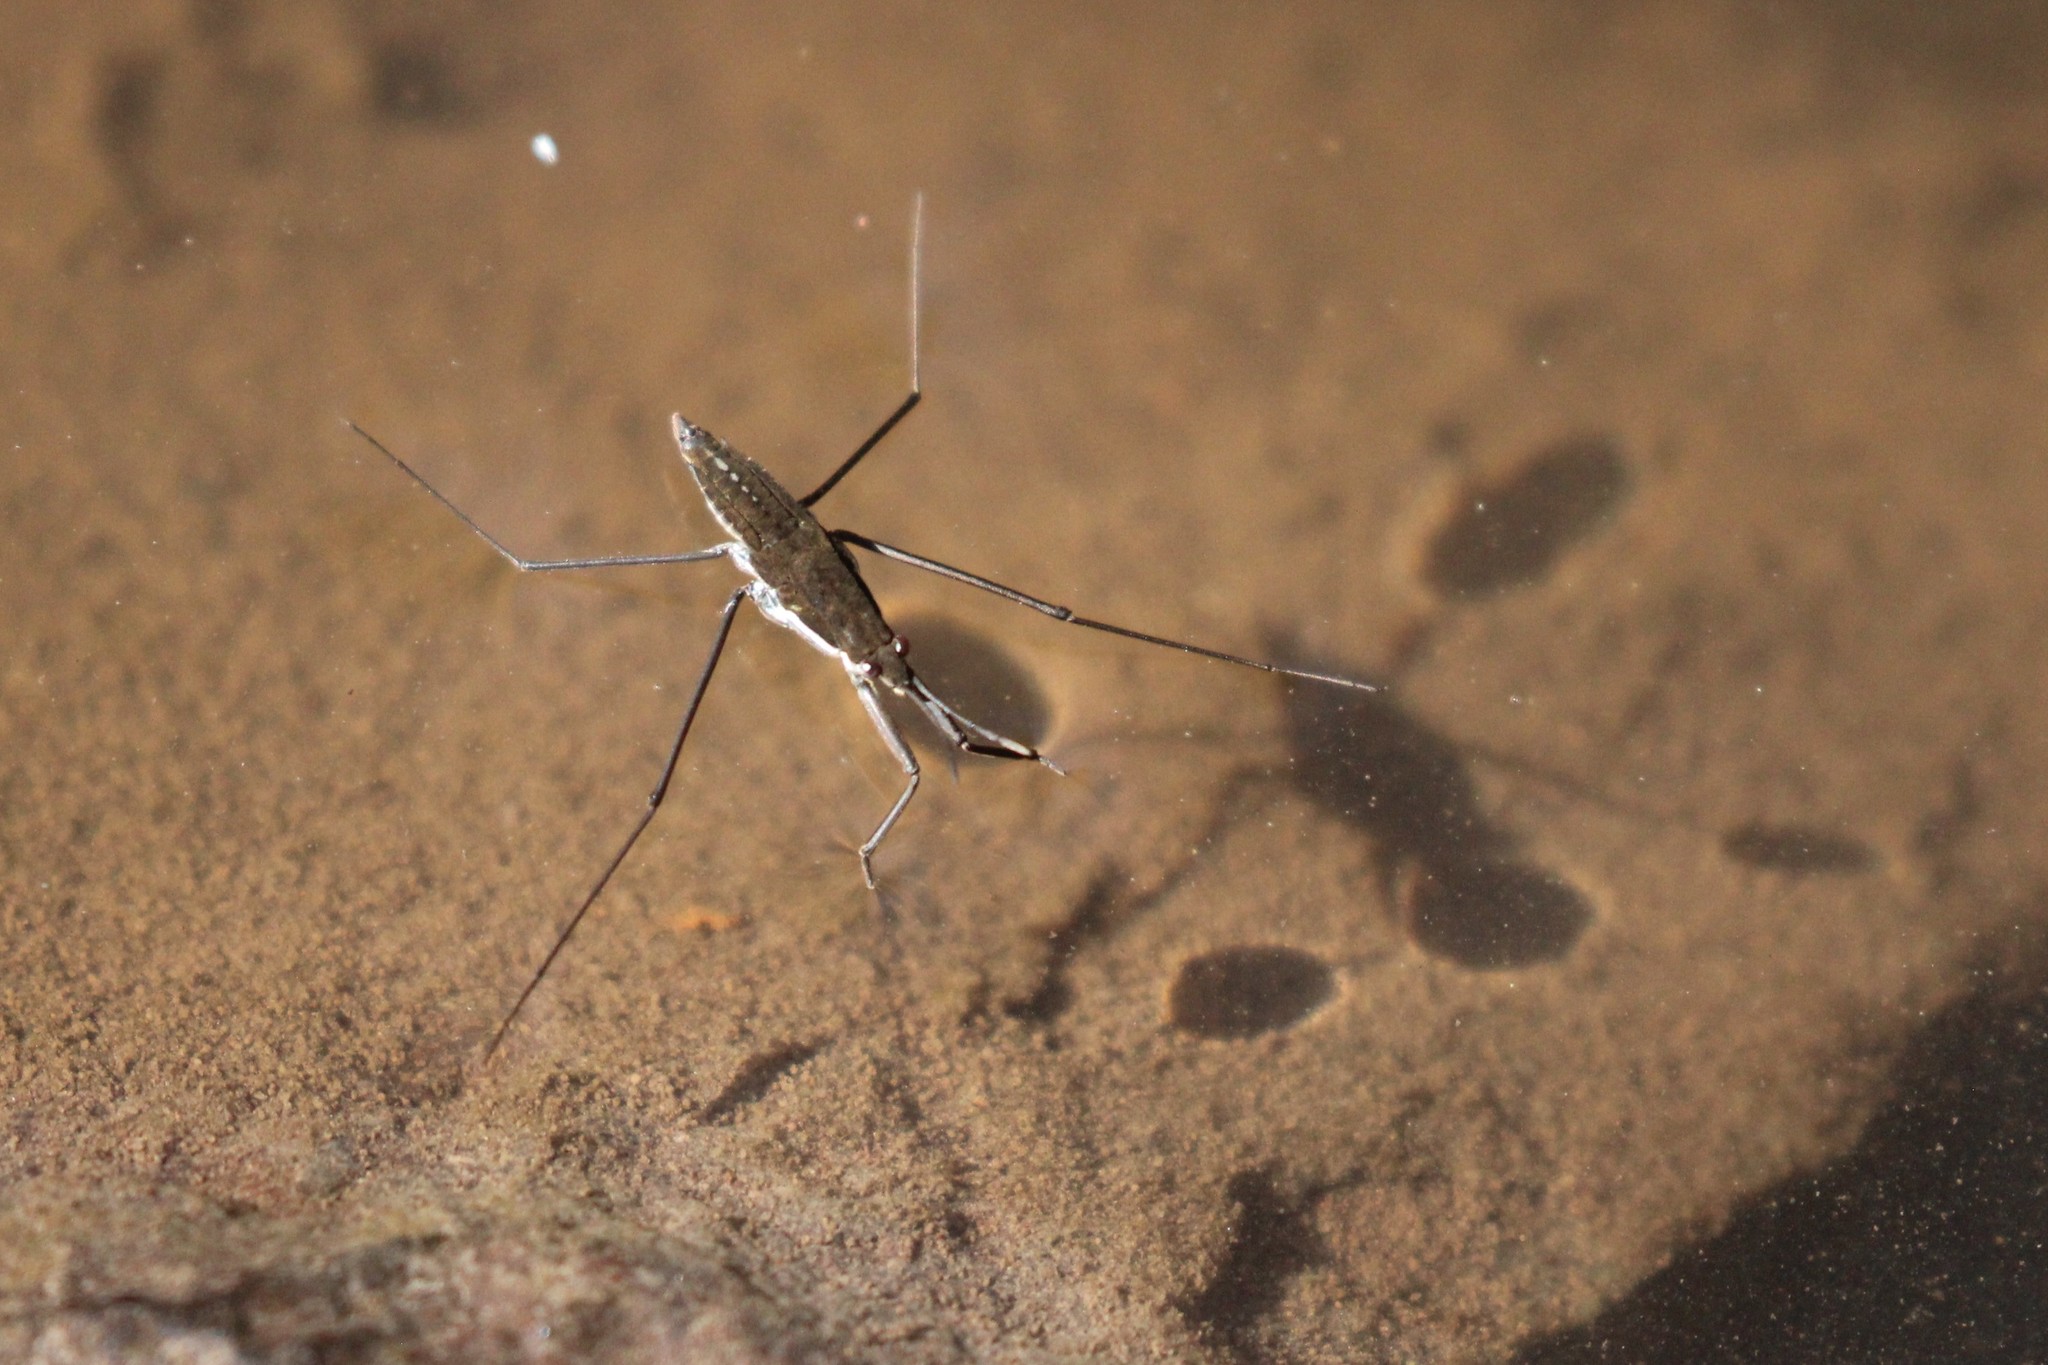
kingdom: Animalia
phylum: Arthropoda
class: Insecta
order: Hemiptera
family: Gerridae
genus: Aquarius
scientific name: Aquarius remigis
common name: Common water strider
